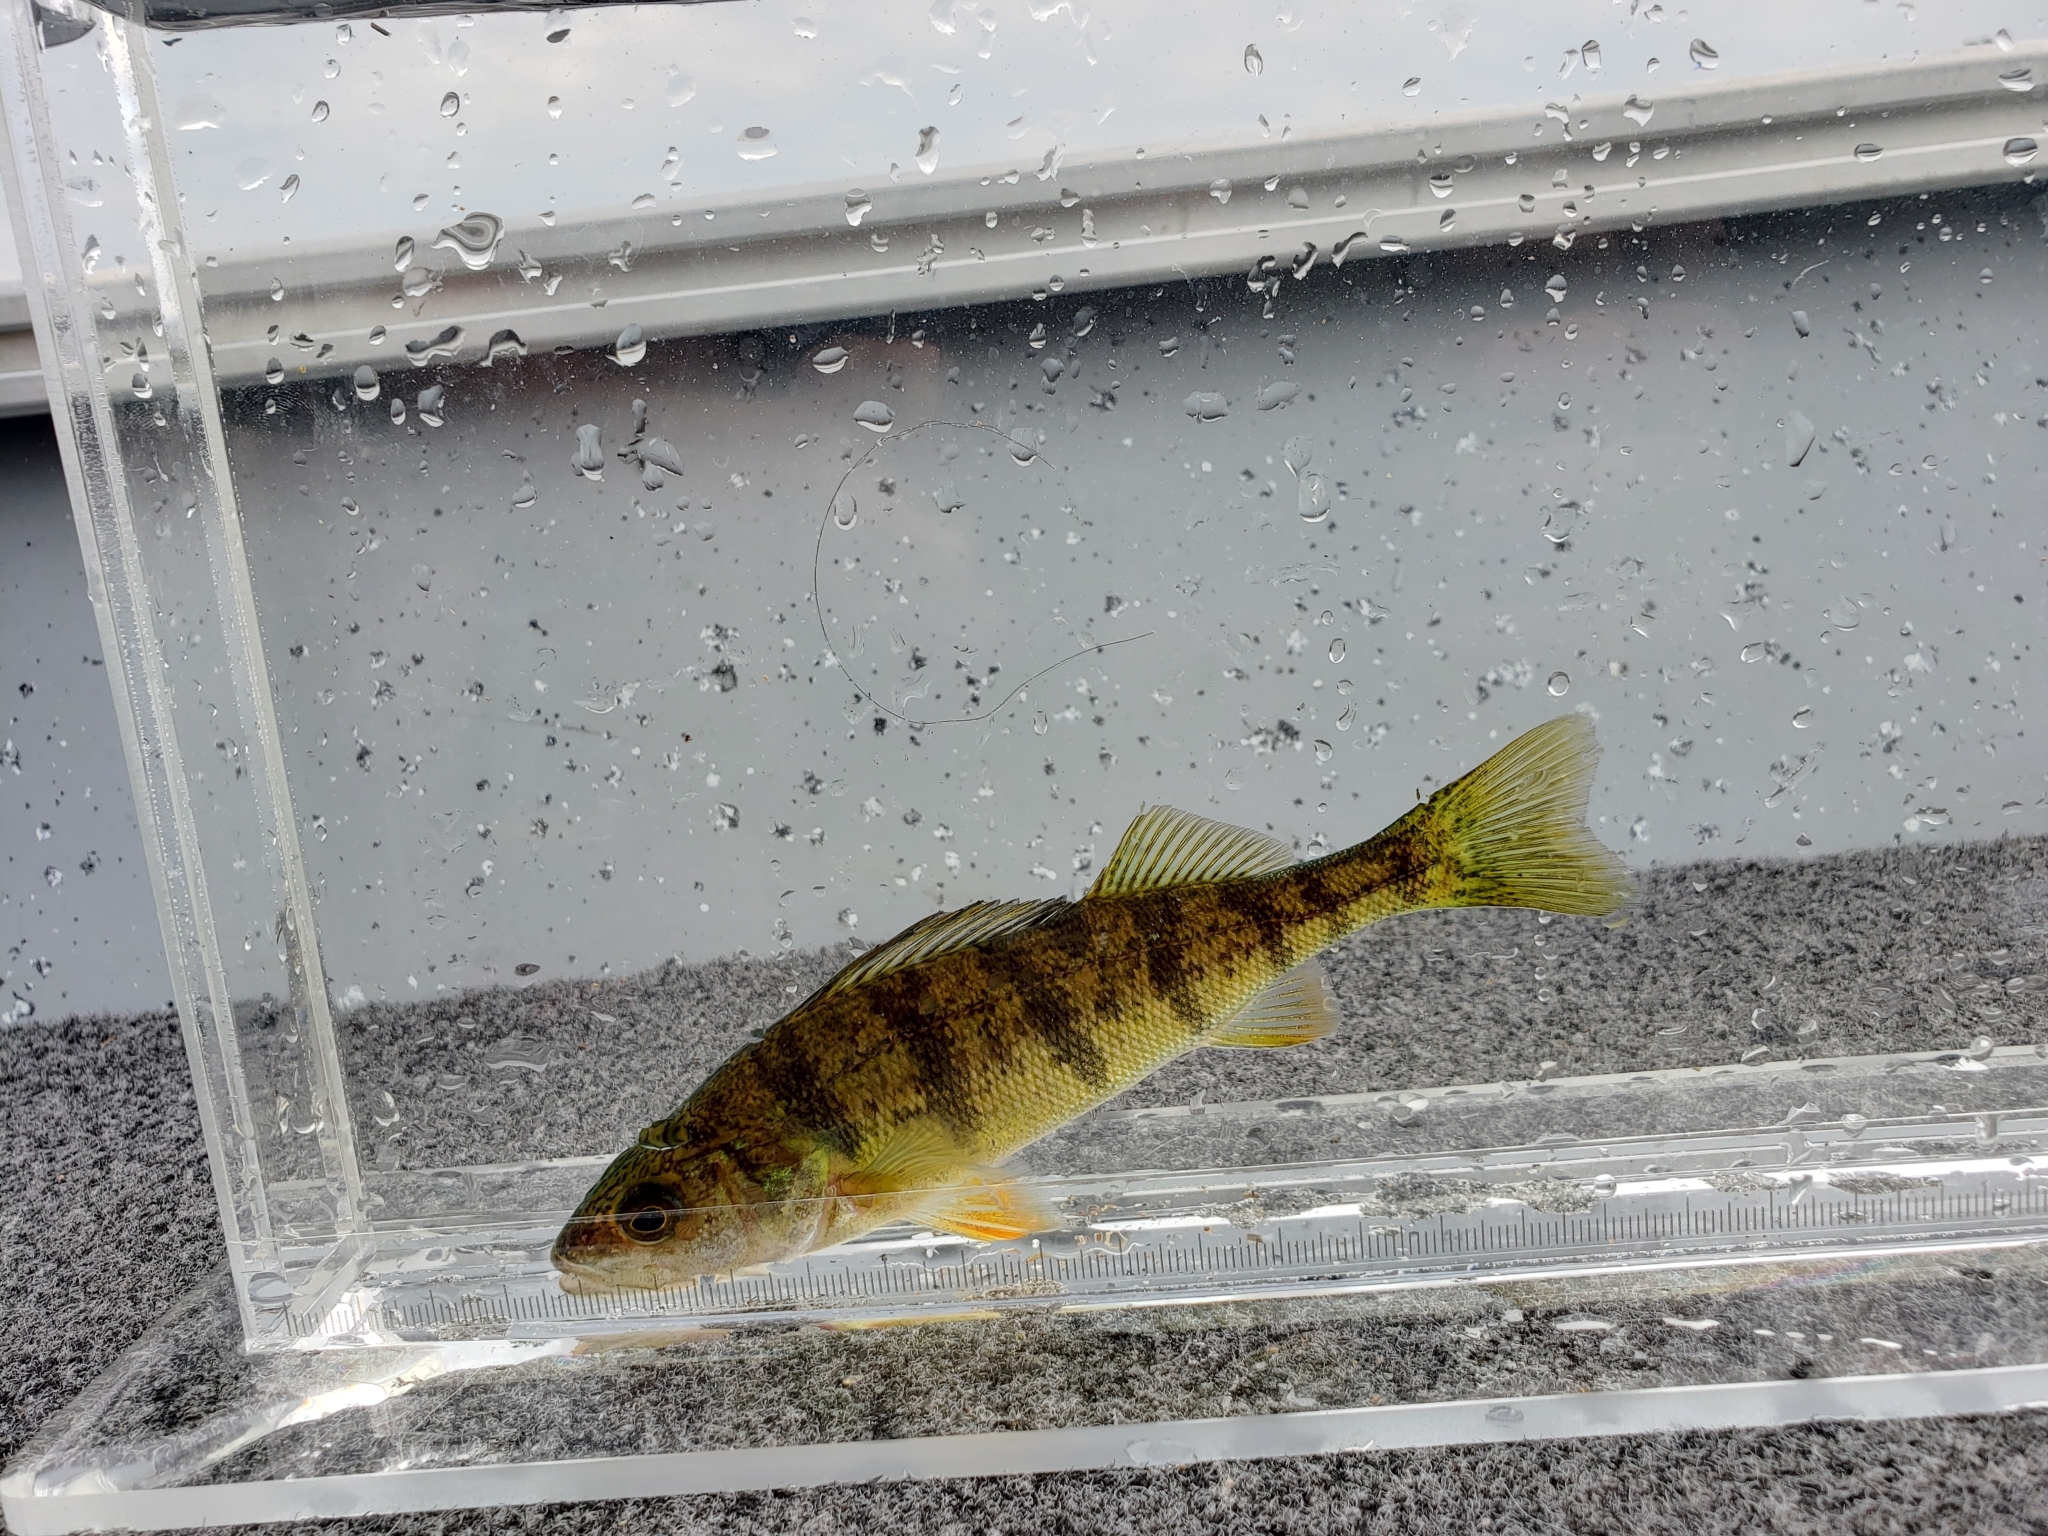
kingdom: Animalia
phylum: Chordata
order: Perciformes
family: Percidae
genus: Perca
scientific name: Perca flavescens
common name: Yellow perch
